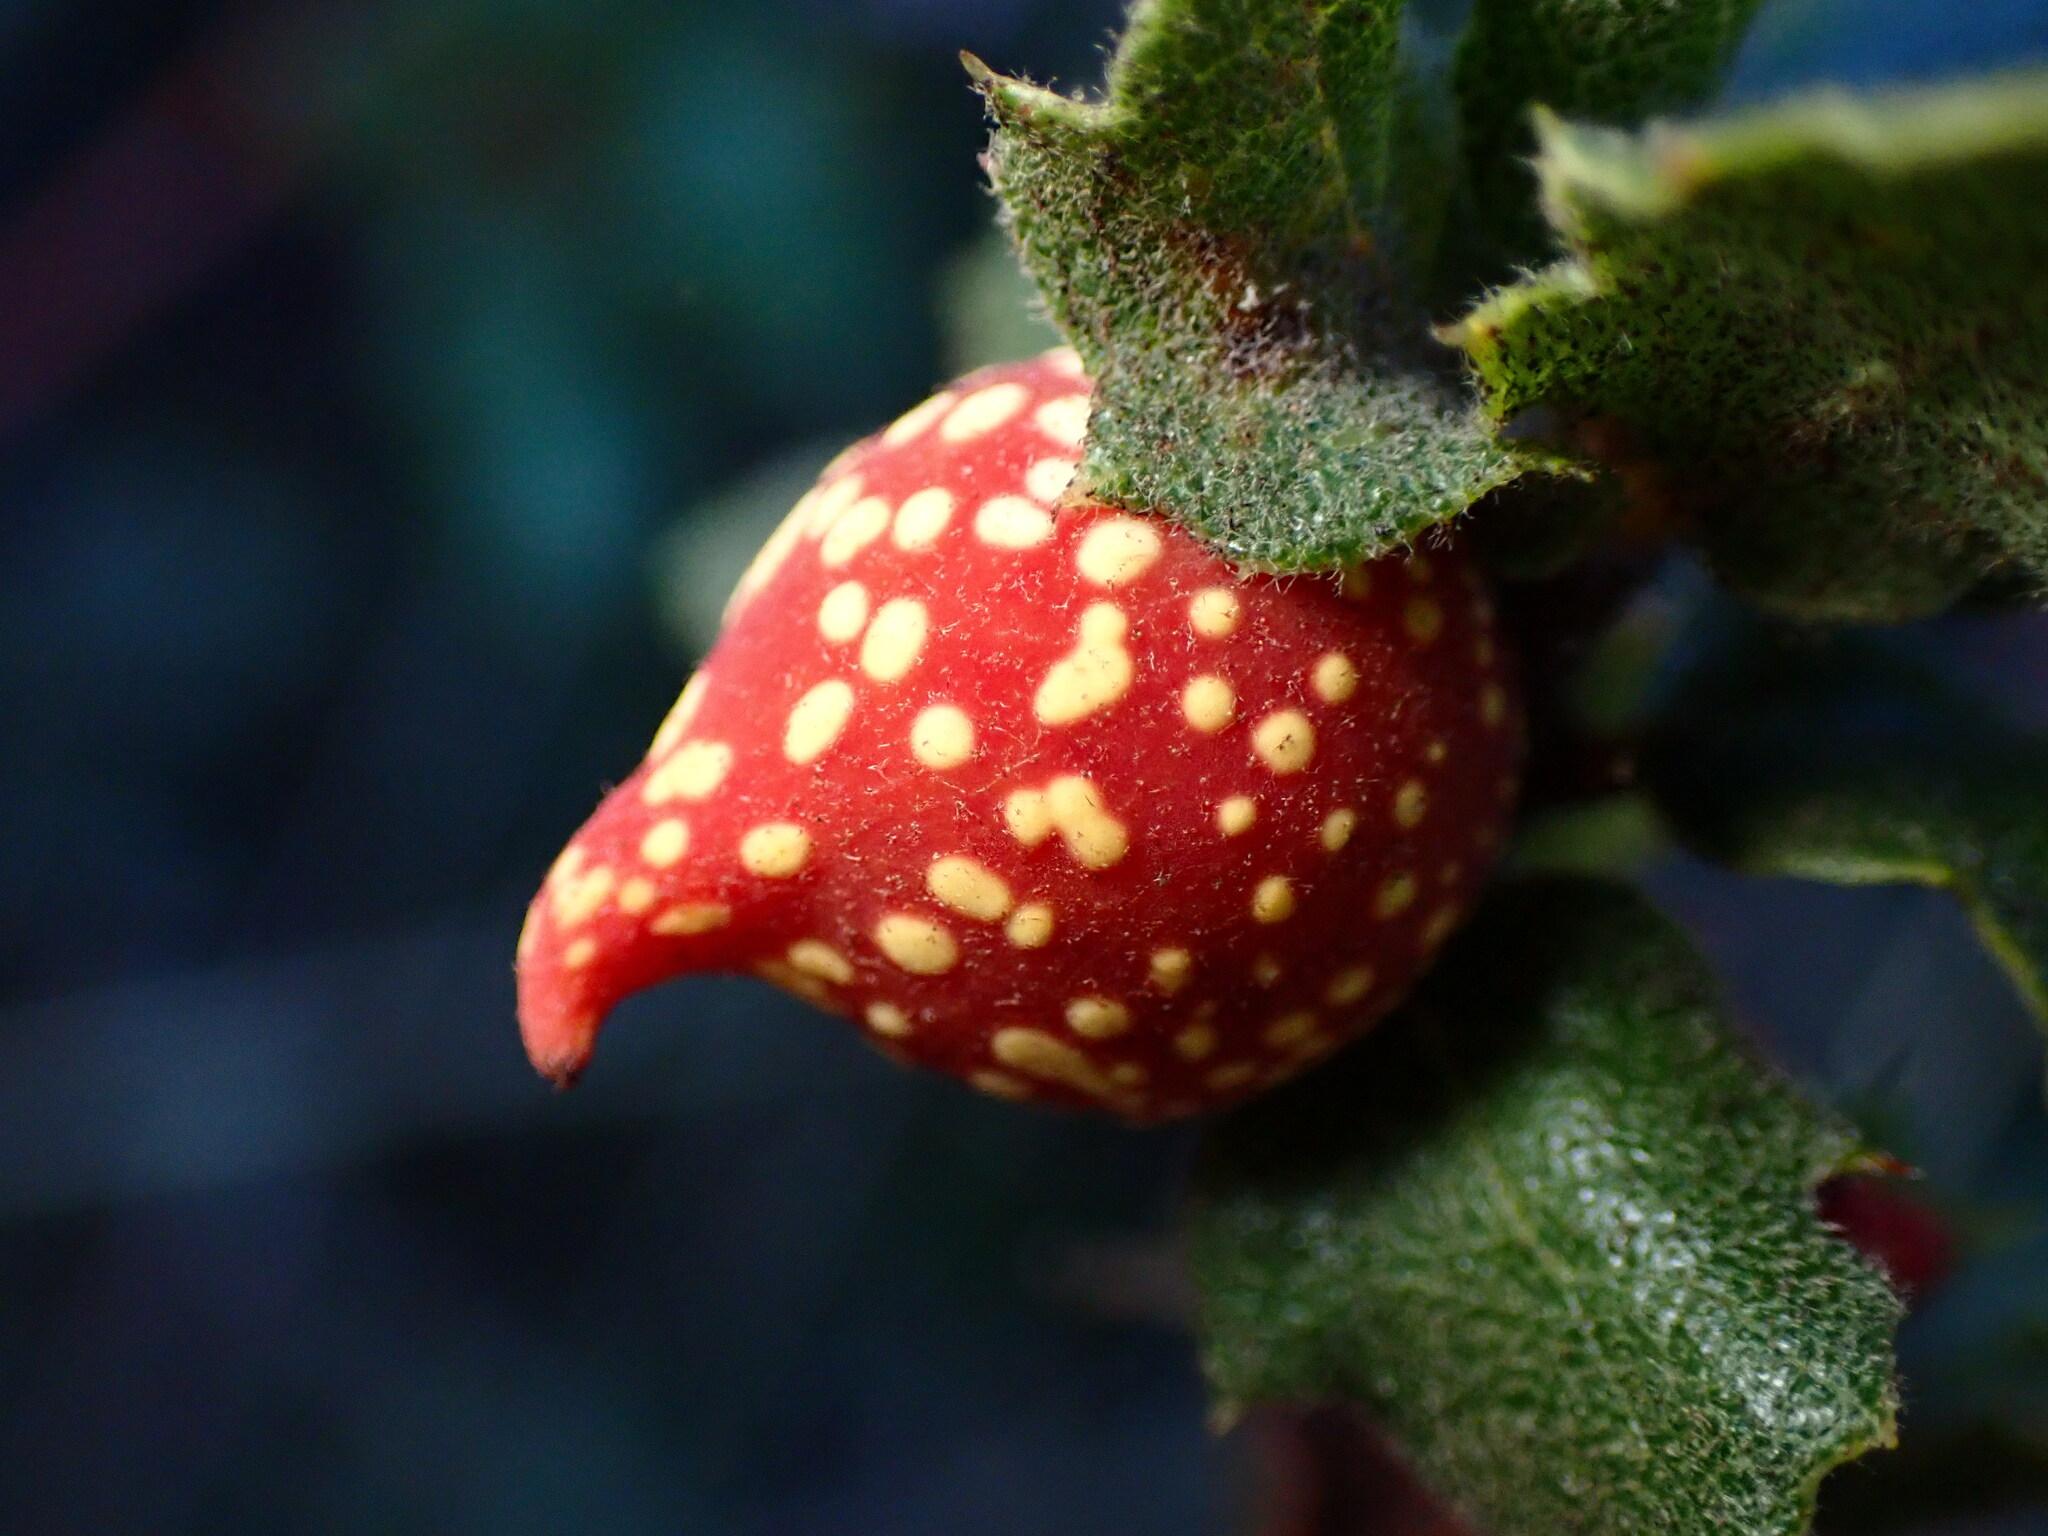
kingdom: Animalia
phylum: Arthropoda
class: Insecta
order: Hymenoptera
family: Cynipidae
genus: Burnettweldia
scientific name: Burnettweldia
